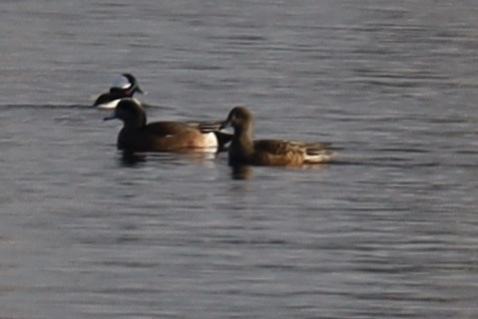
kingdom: Animalia
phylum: Chordata
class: Aves
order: Anseriformes
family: Anatidae
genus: Mareca
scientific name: Mareca americana
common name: American wigeon
